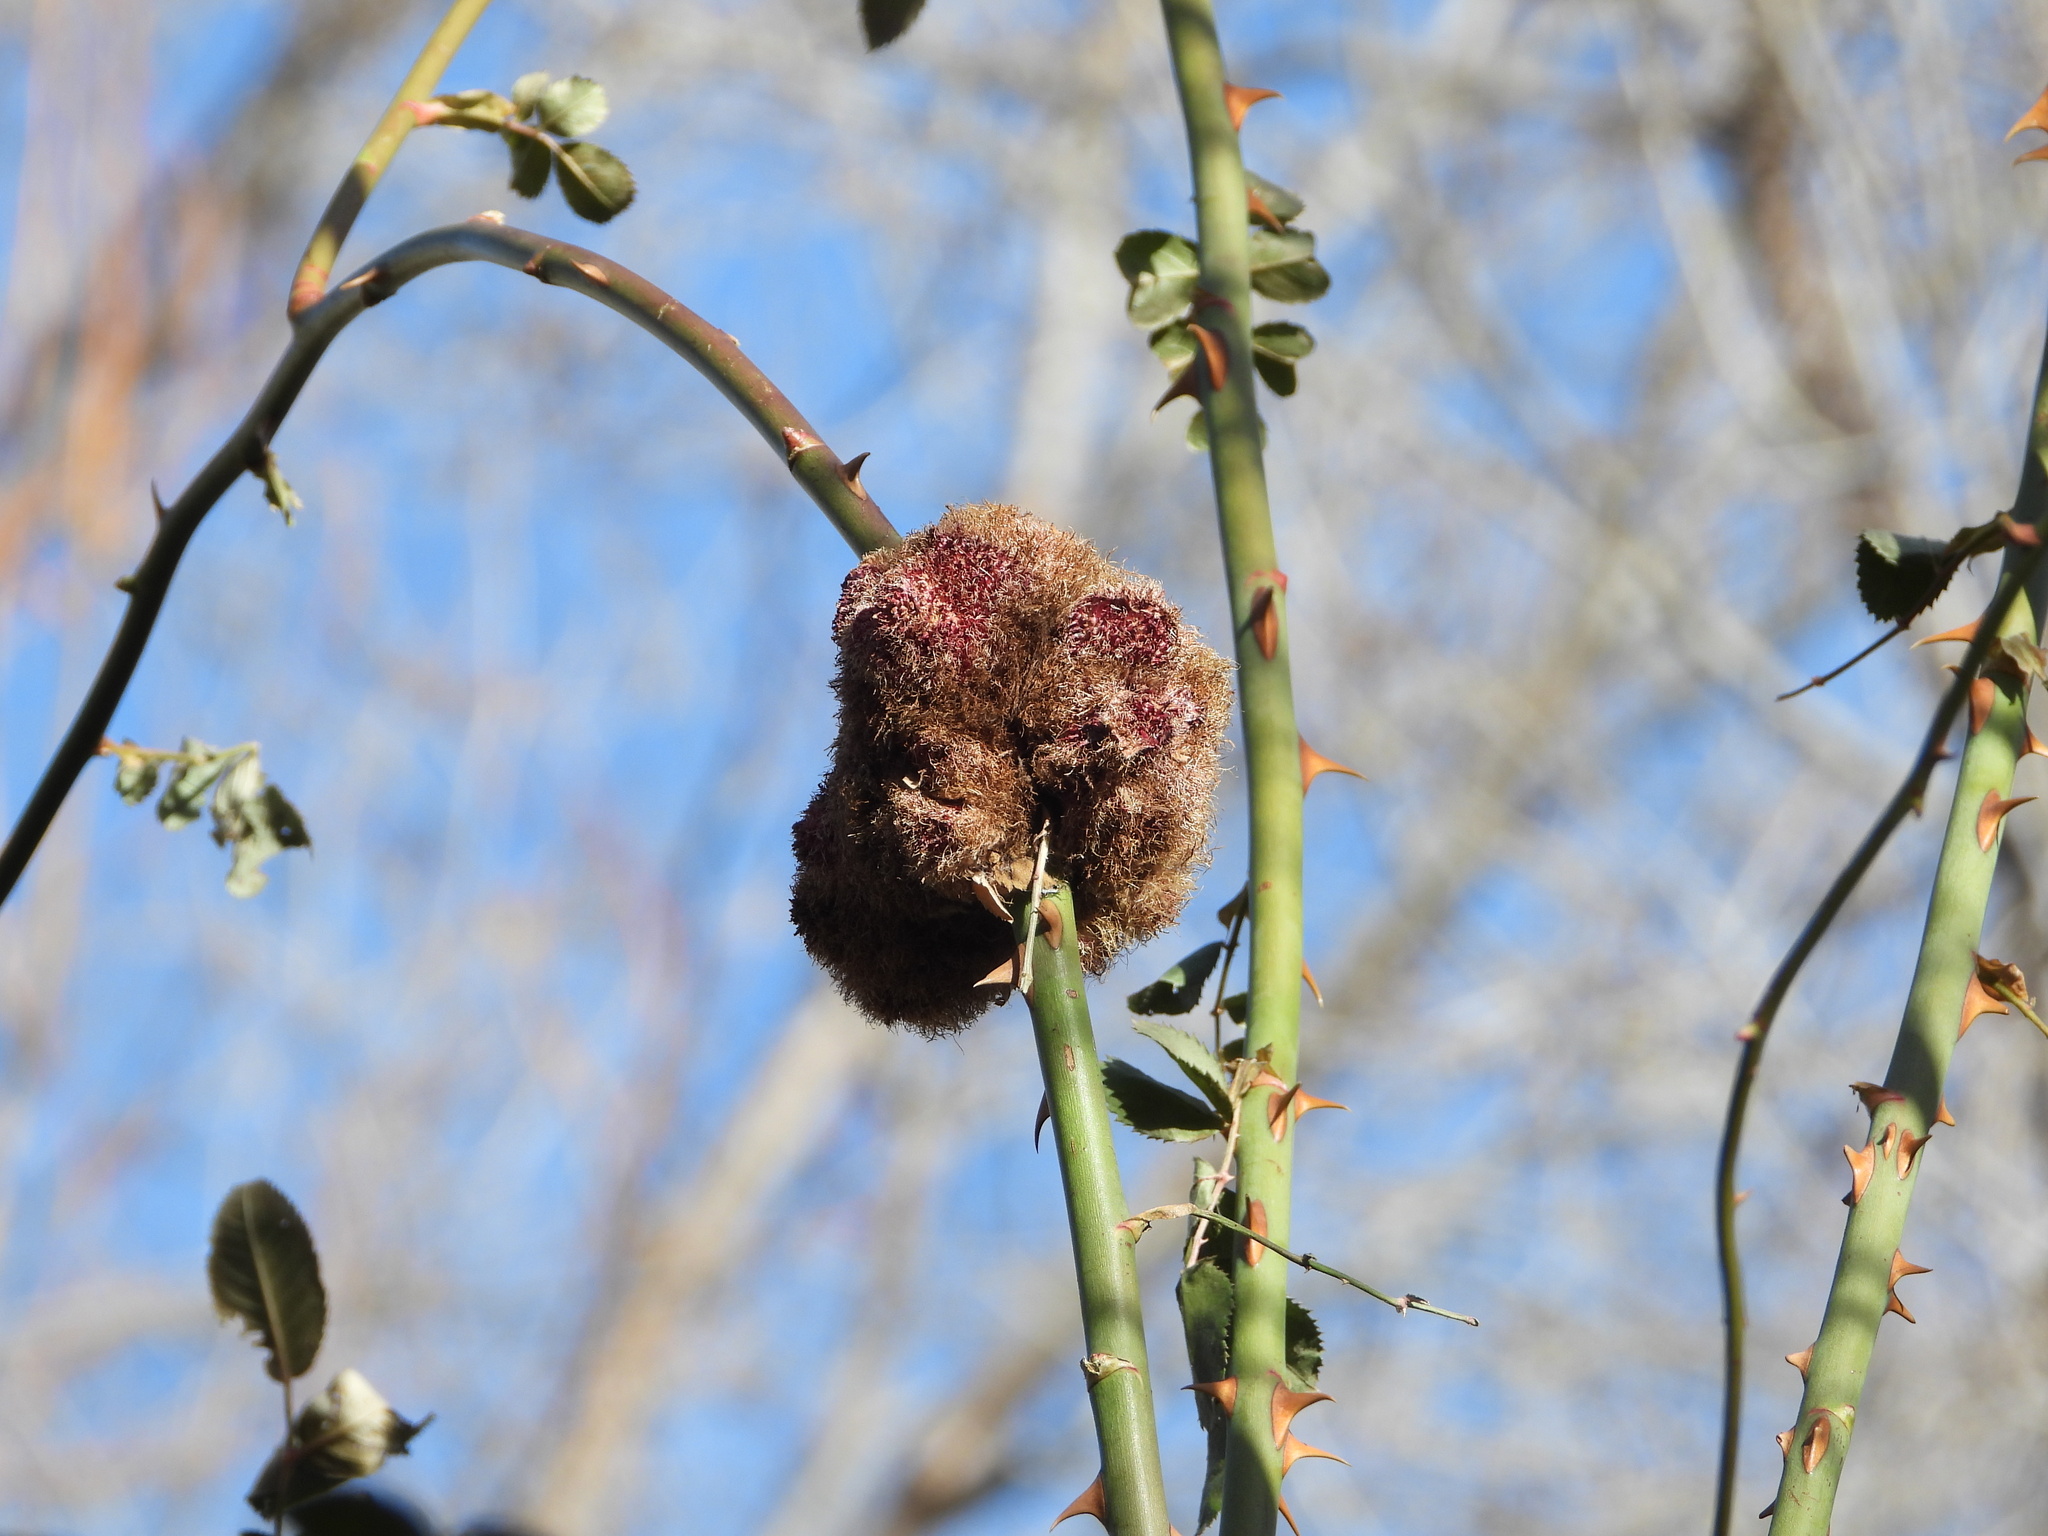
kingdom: Animalia
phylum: Arthropoda
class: Insecta
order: Hymenoptera
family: Cynipidae
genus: Diplolepis
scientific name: Diplolepis rosae
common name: Bedeguar gall
